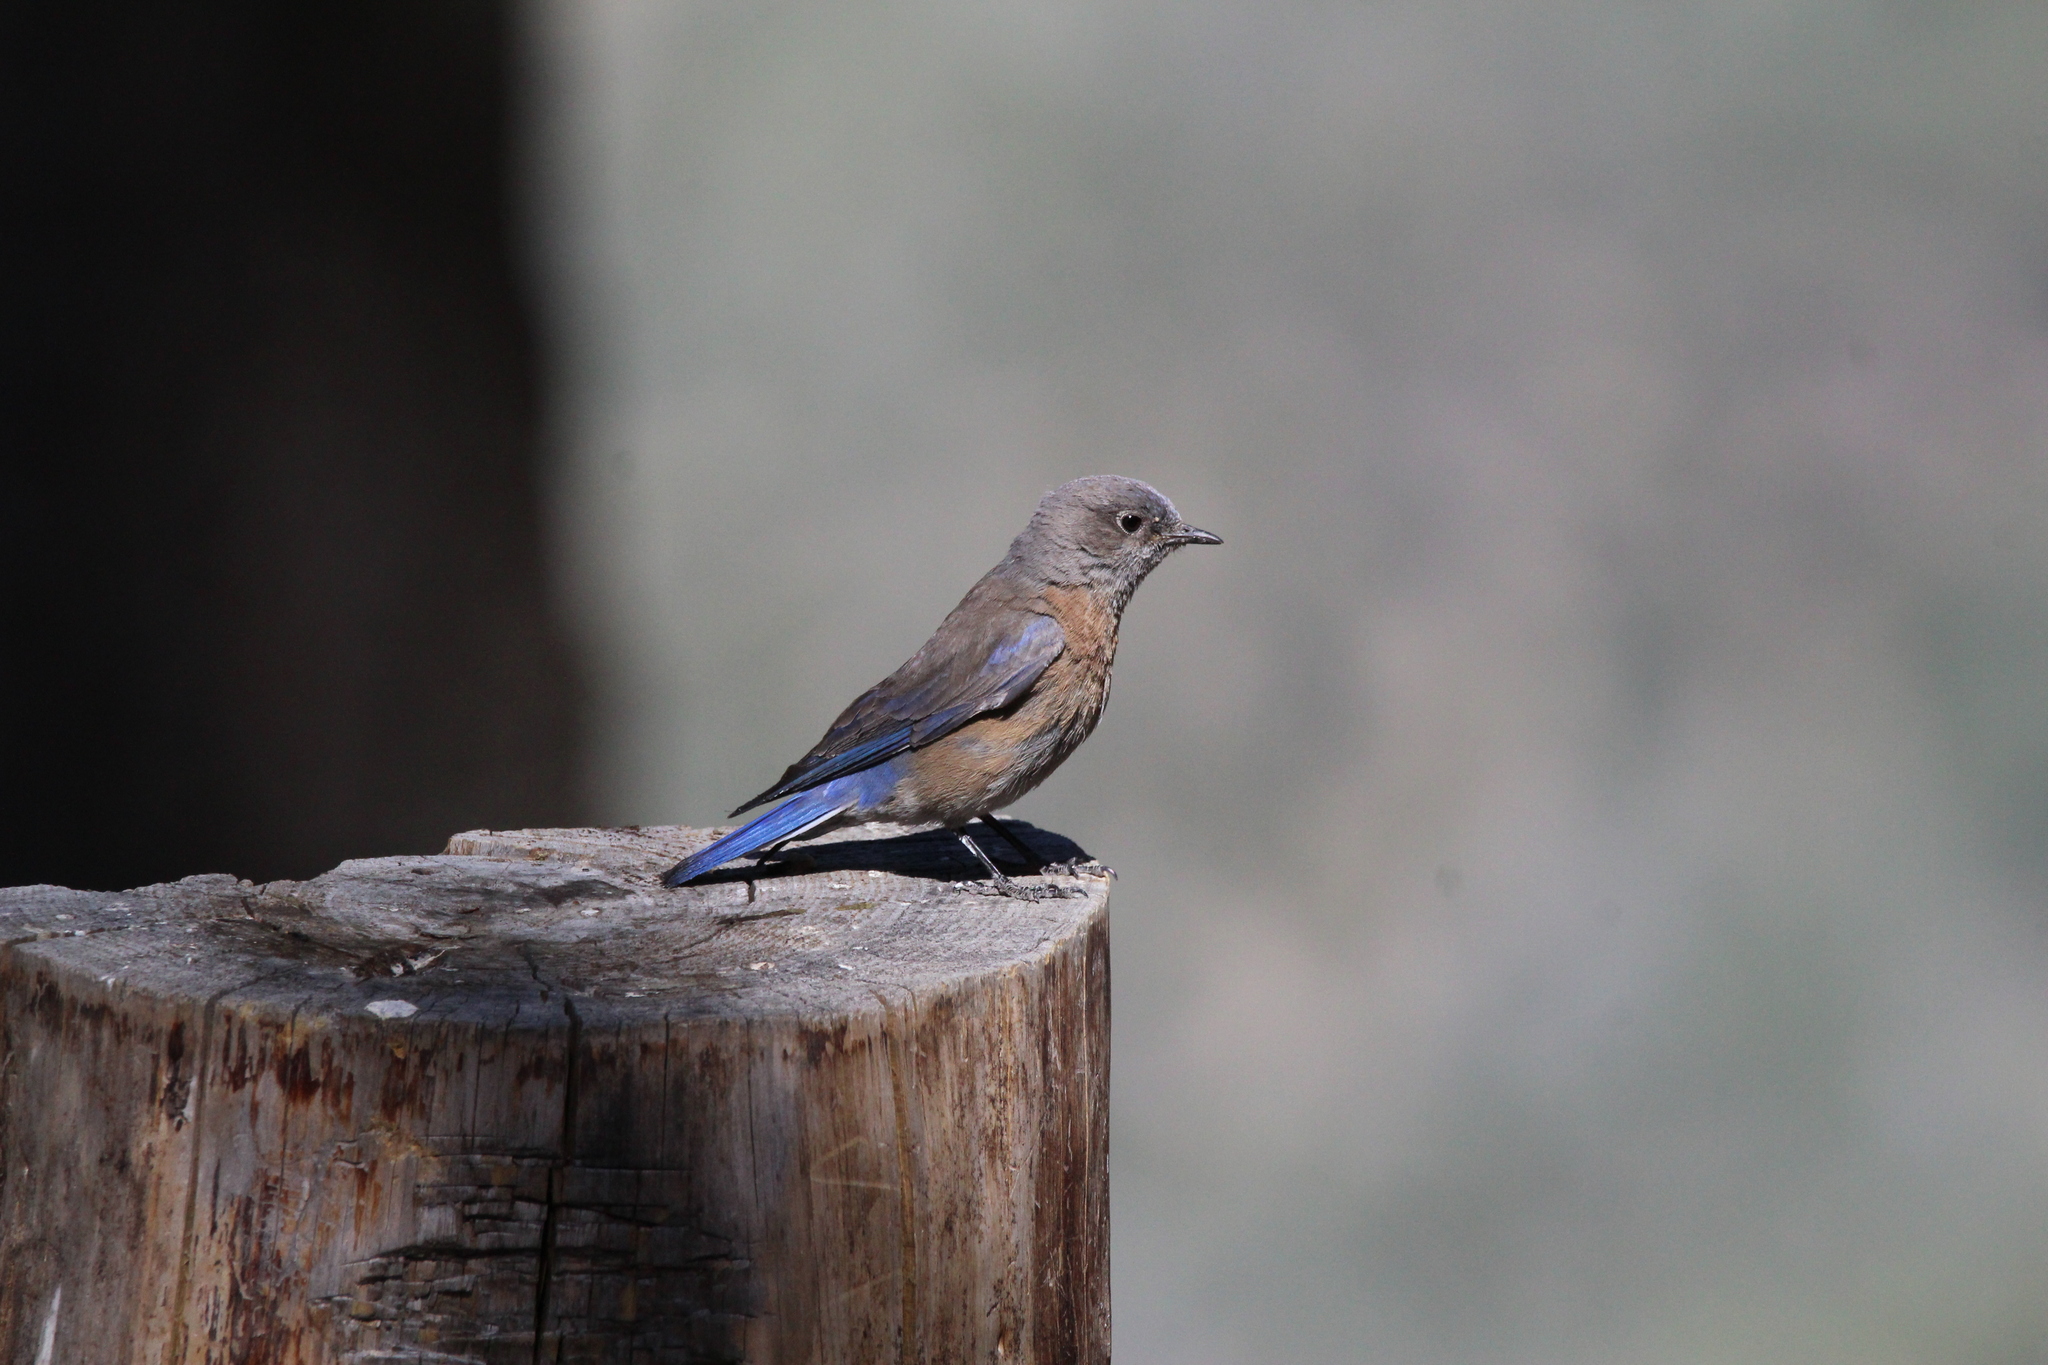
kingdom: Animalia
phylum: Chordata
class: Aves
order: Passeriformes
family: Turdidae
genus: Sialia
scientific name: Sialia mexicana
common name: Western bluebird
